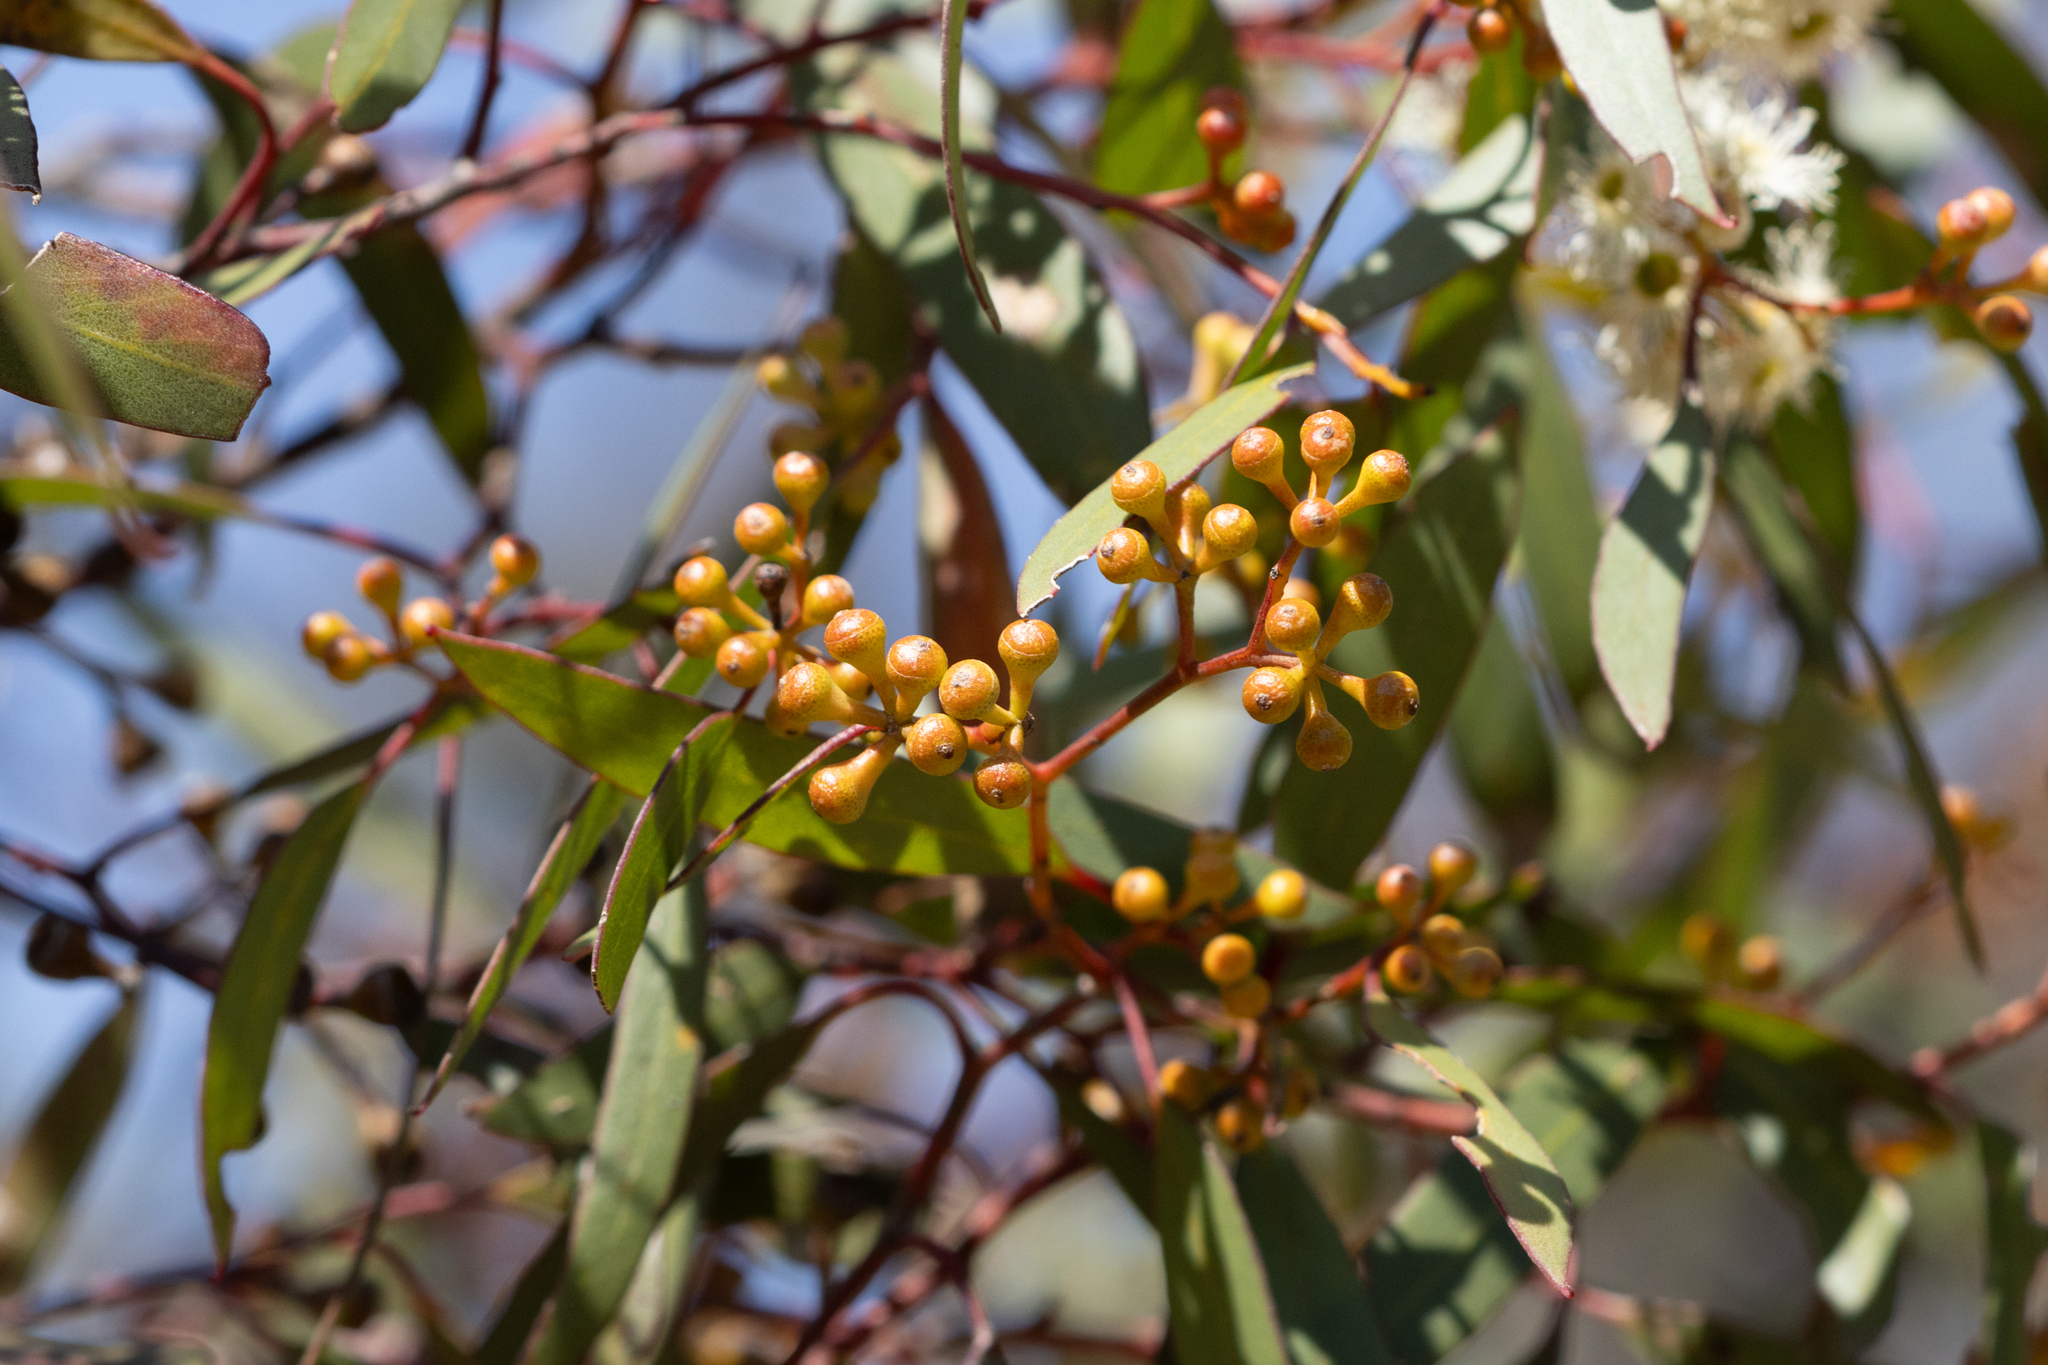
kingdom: Plantae
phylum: Tracheophyta
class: Magnoliopsida
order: Myrtales
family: Myrtaceae
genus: Eucalyptus
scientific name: Eucalyptus gracilis
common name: White mallee
